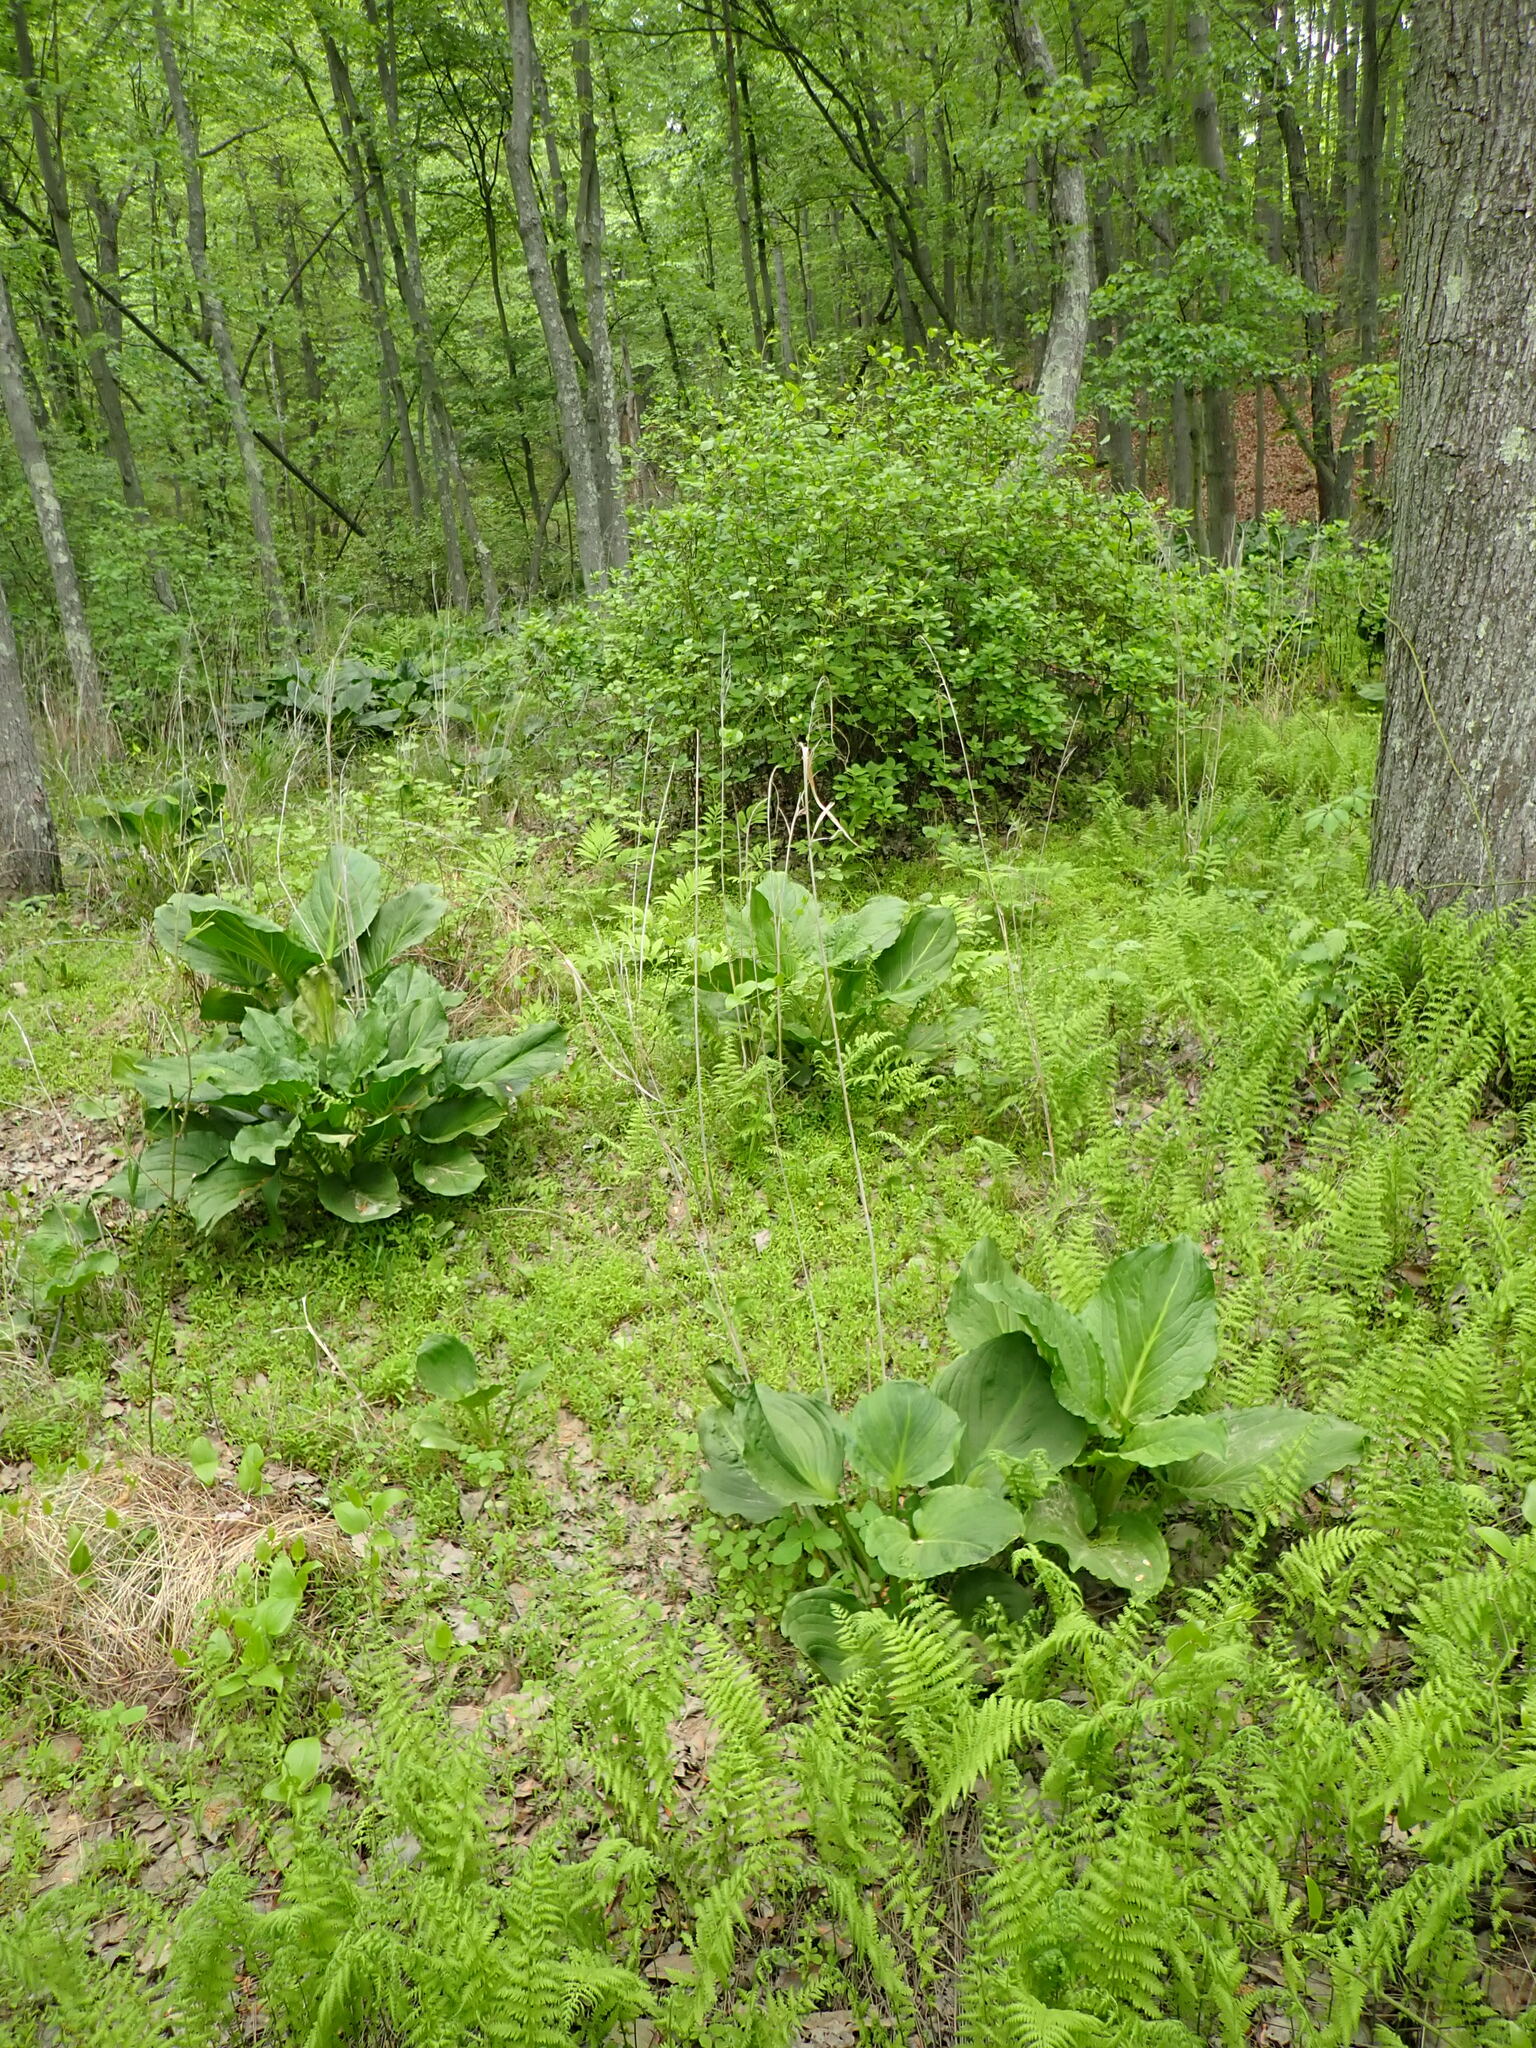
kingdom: Plantae
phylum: Tracheophyta
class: Liliopsida
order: Alismatales
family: Araceae
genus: Symplocarpus
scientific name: Symplocarpus foetidus
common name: Eastern skunk cabbage
